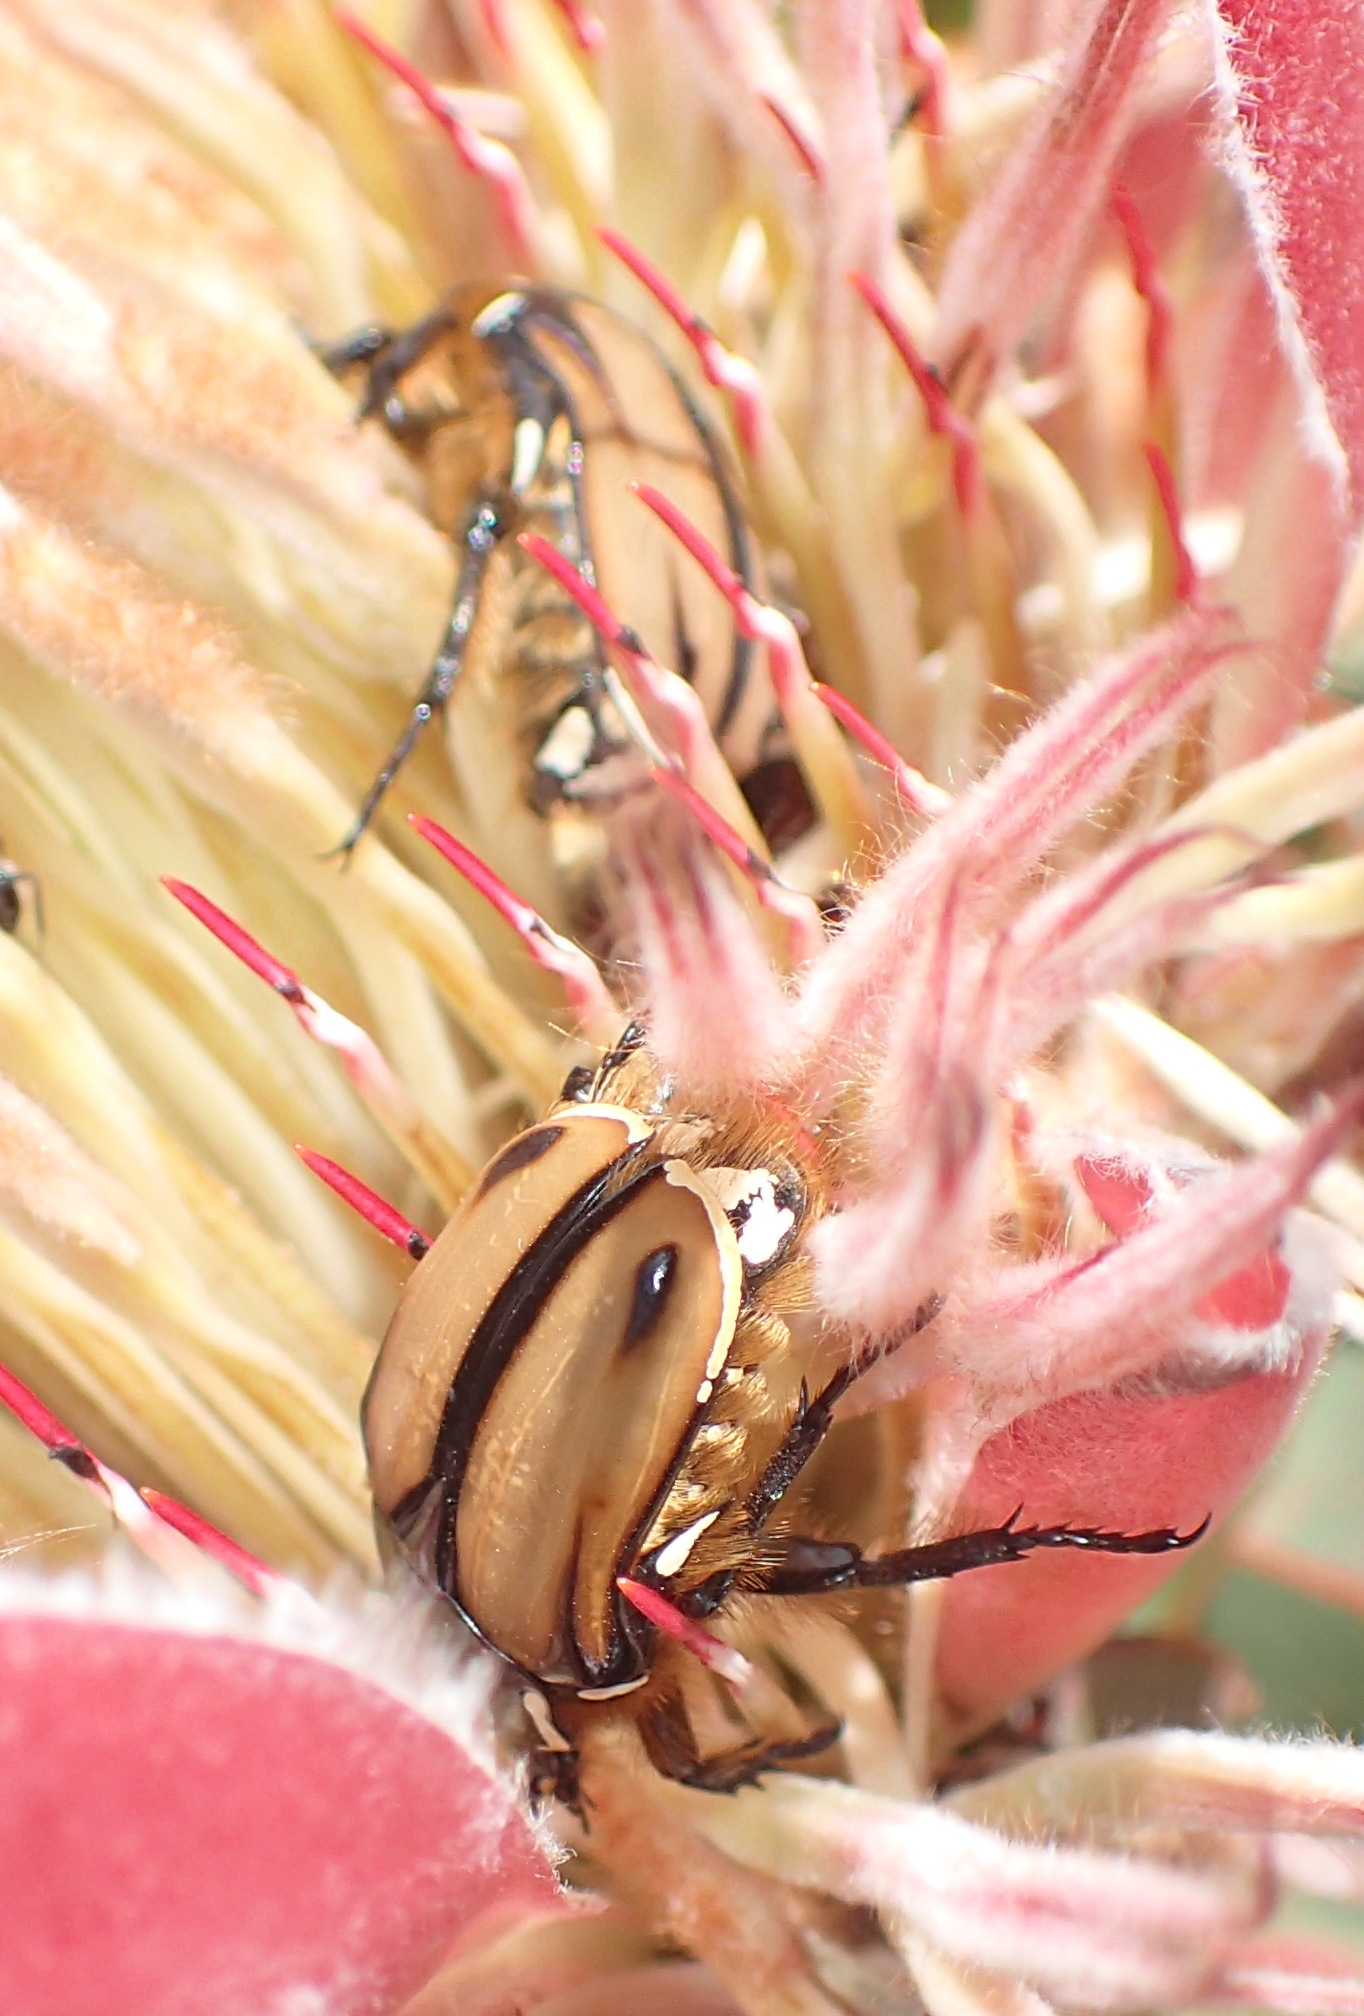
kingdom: Animalia
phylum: Arthropoda
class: Insecta
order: Coleoptera
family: Scarabaeidae
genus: Trichostetha
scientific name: Trichostetha signata
